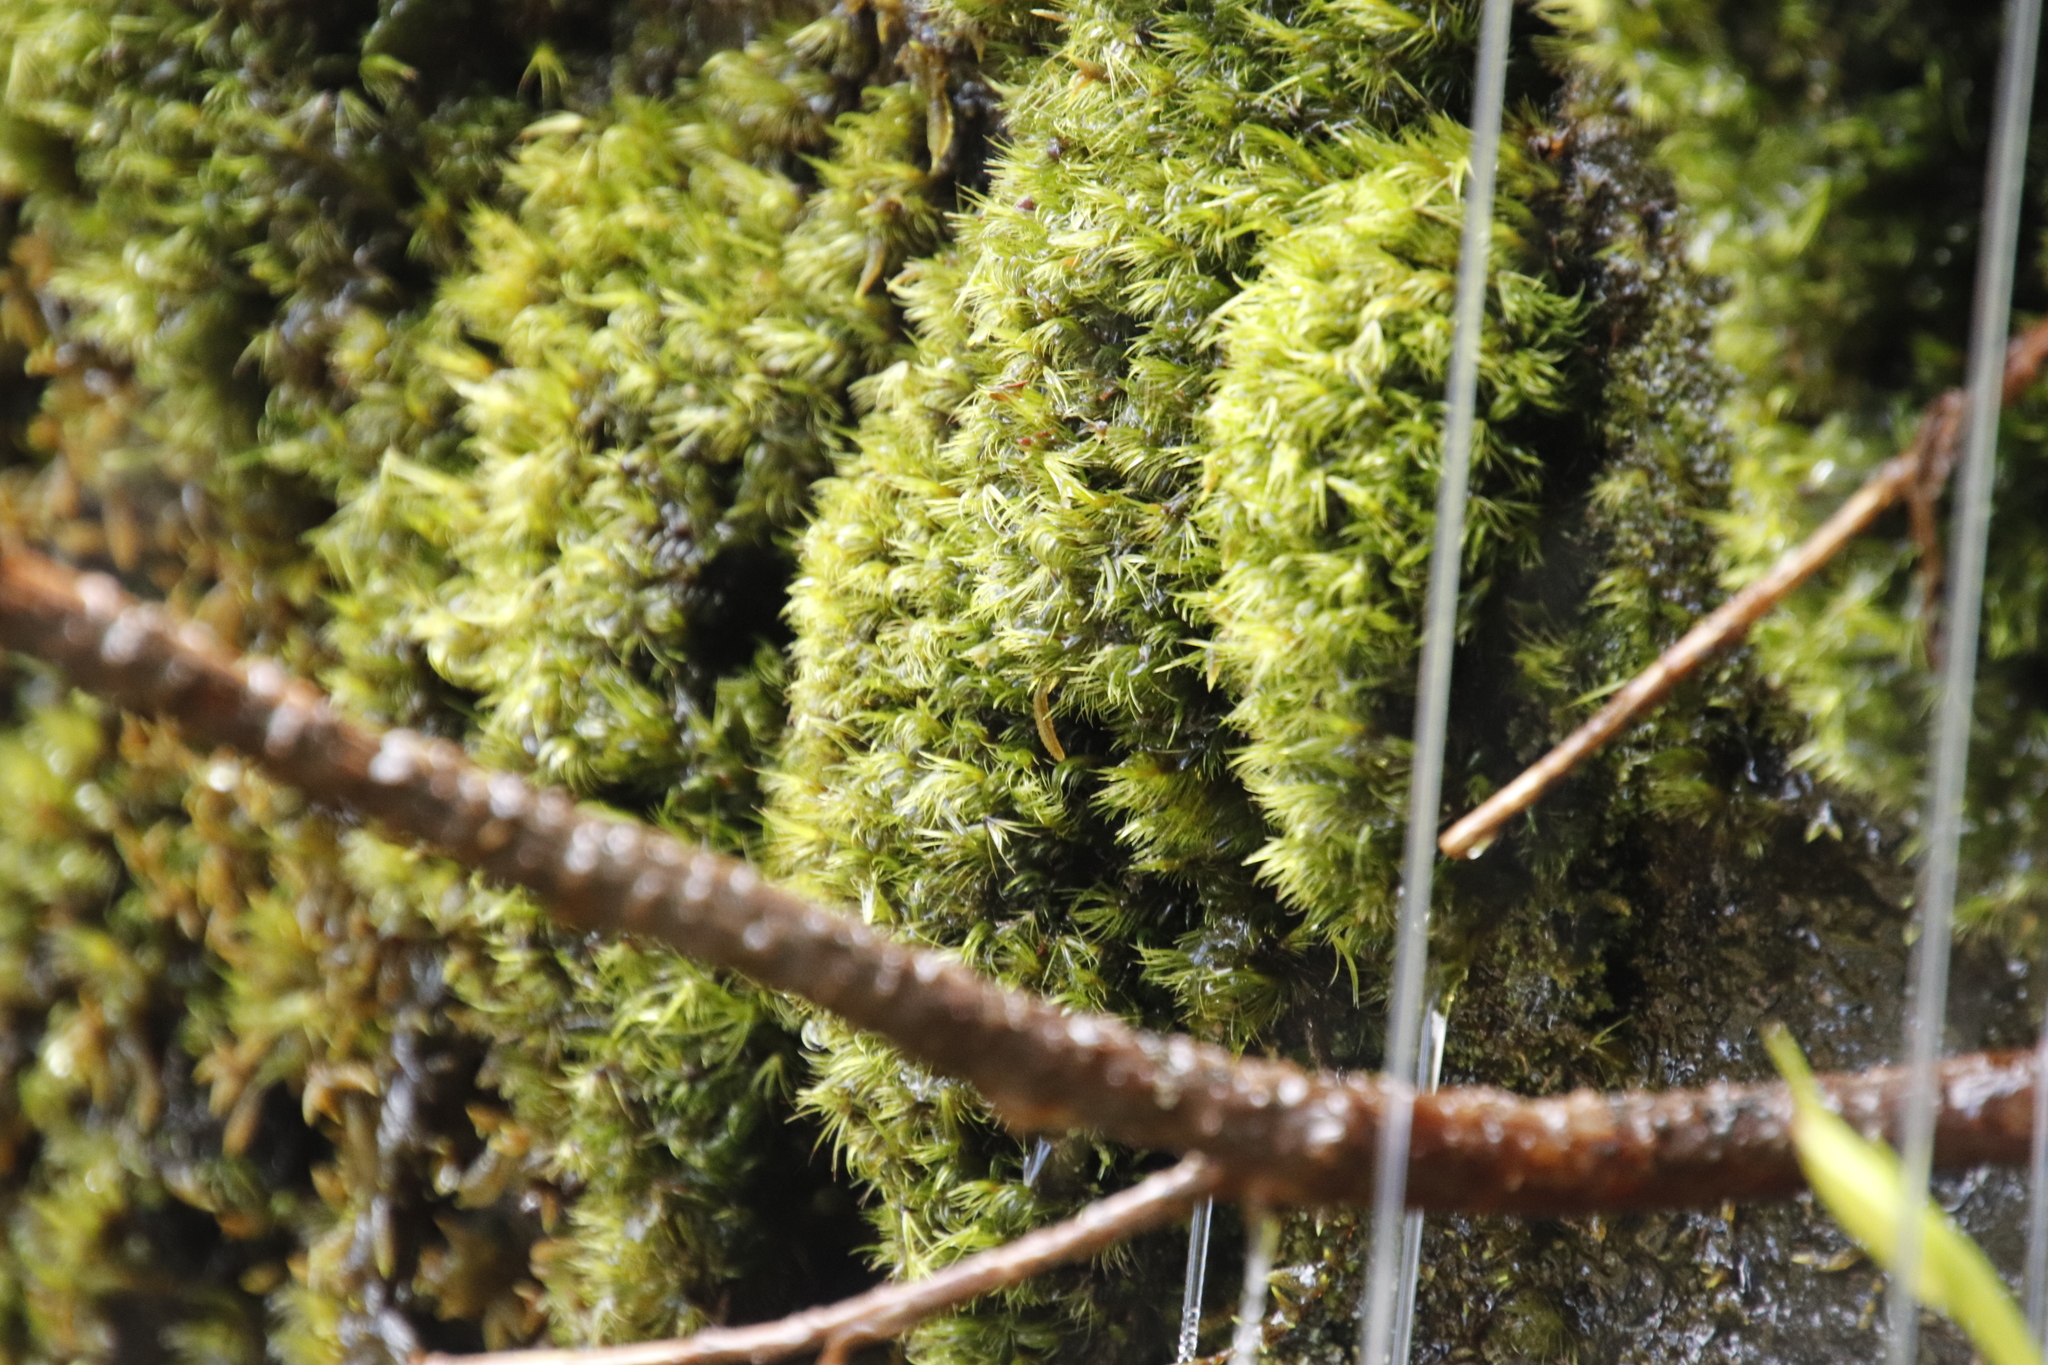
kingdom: Plantae
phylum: Bryophyta
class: Bryopsida
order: Dicranales
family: Dicranaceae
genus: Dicranoloma
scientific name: Dicranoloma billardieri
